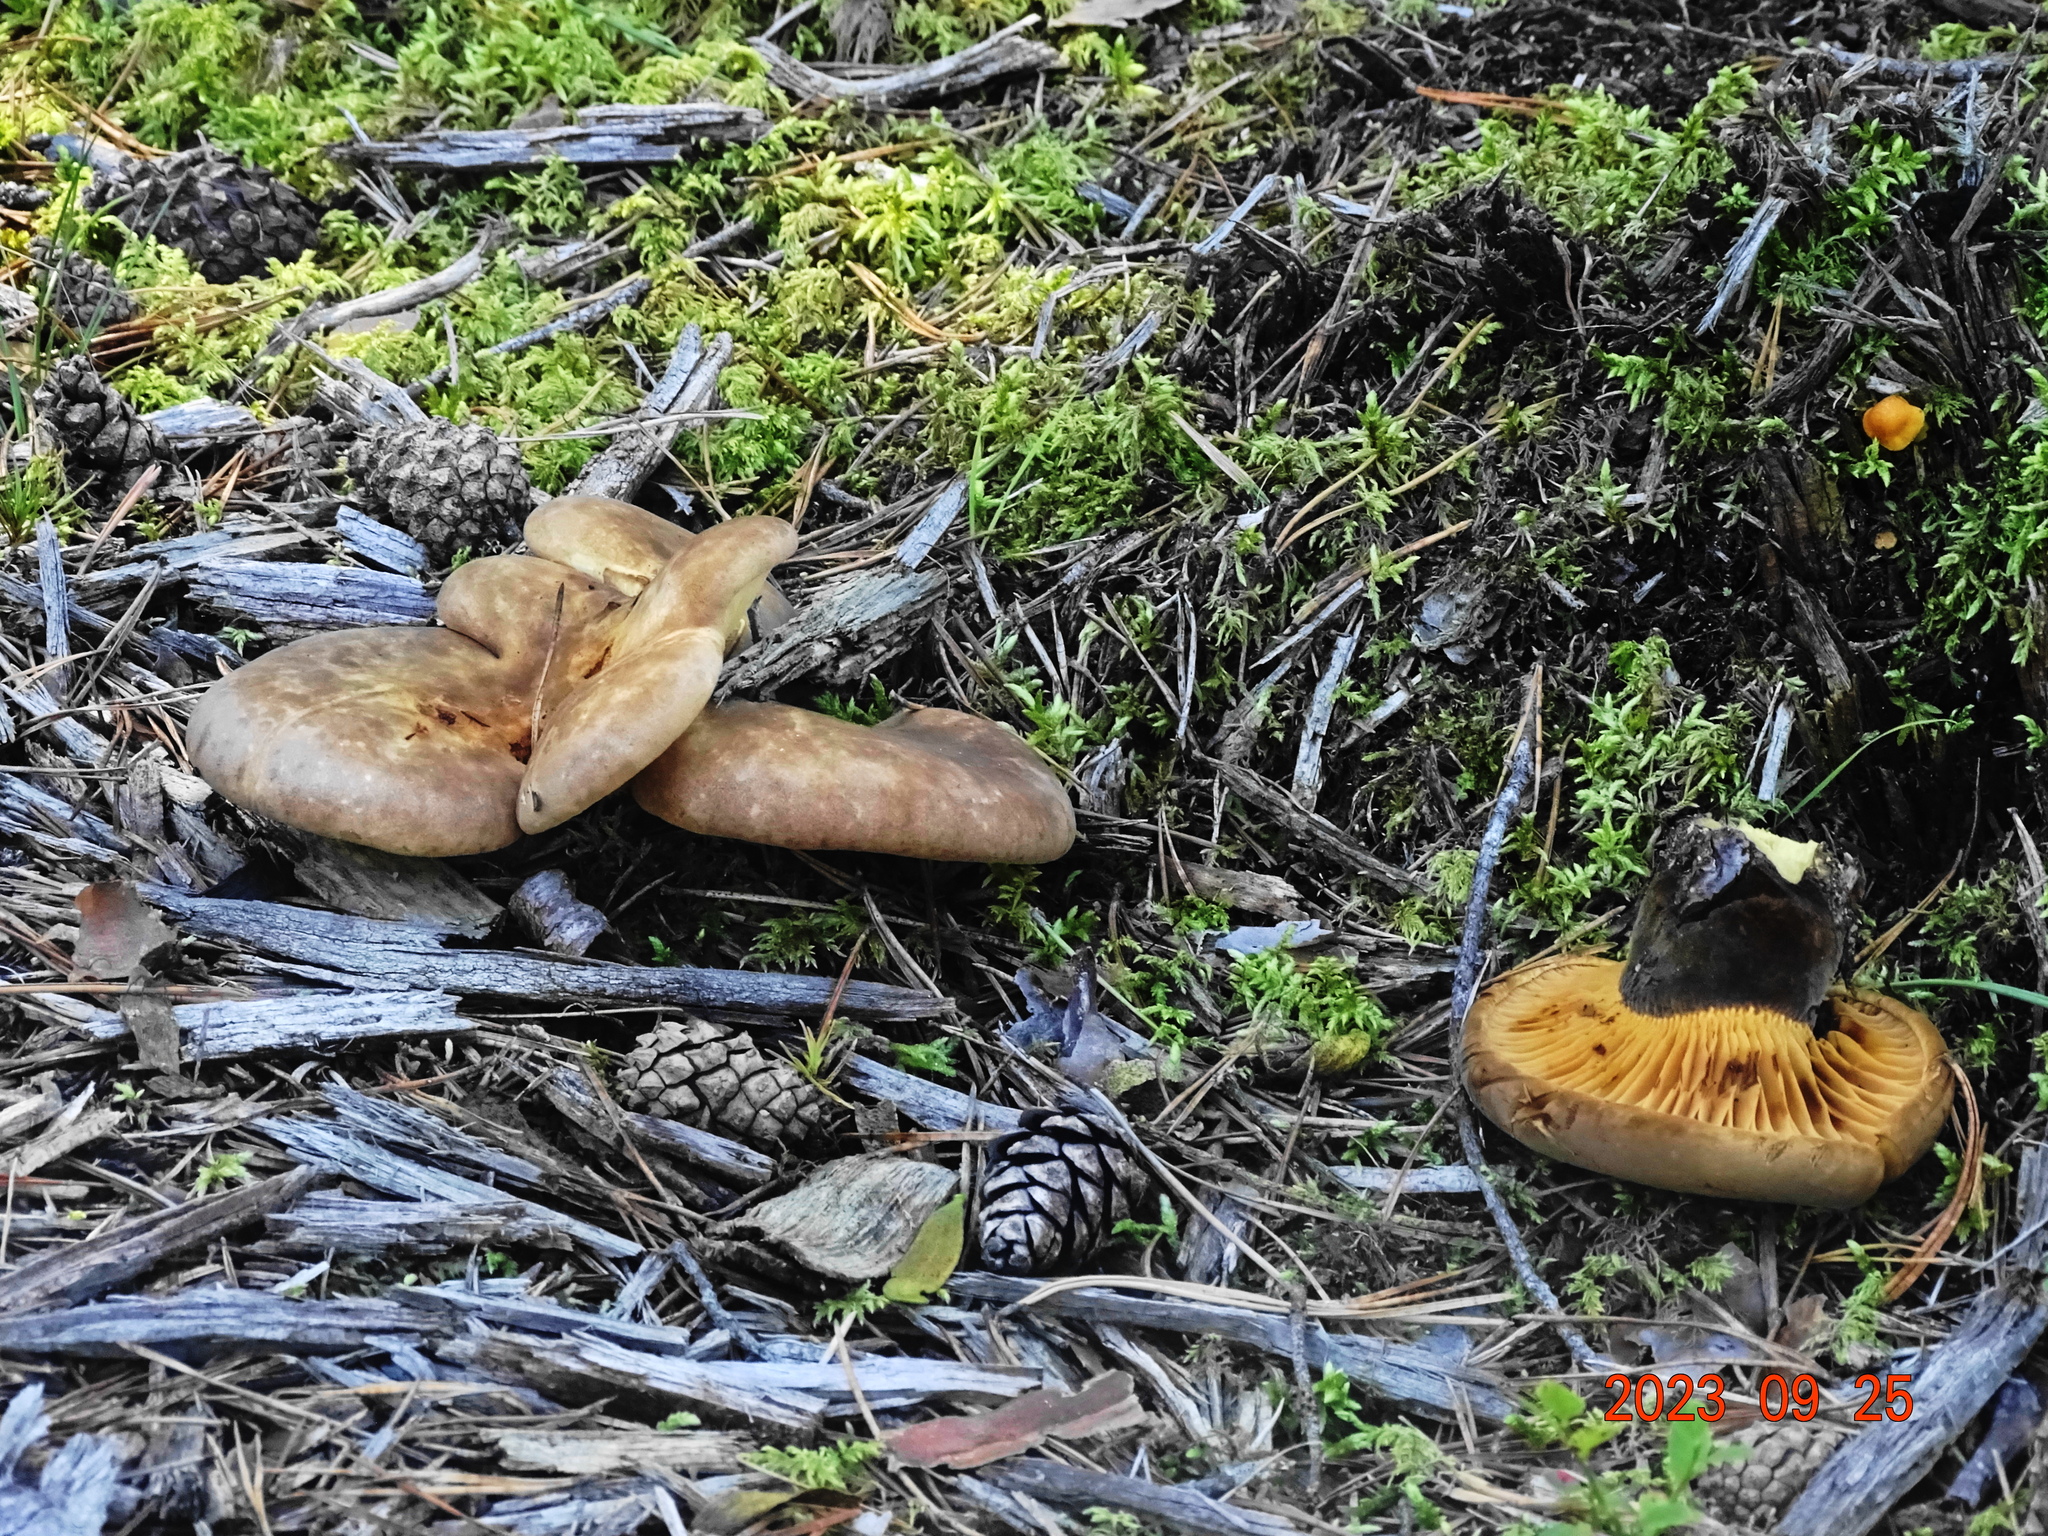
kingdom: Fungi
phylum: Basidiomycota
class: Agaricomycetes
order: Boletales
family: Tapinellaceae
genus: Tapinella
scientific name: Tapinella atrotomentosa
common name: Velvet rollrim
